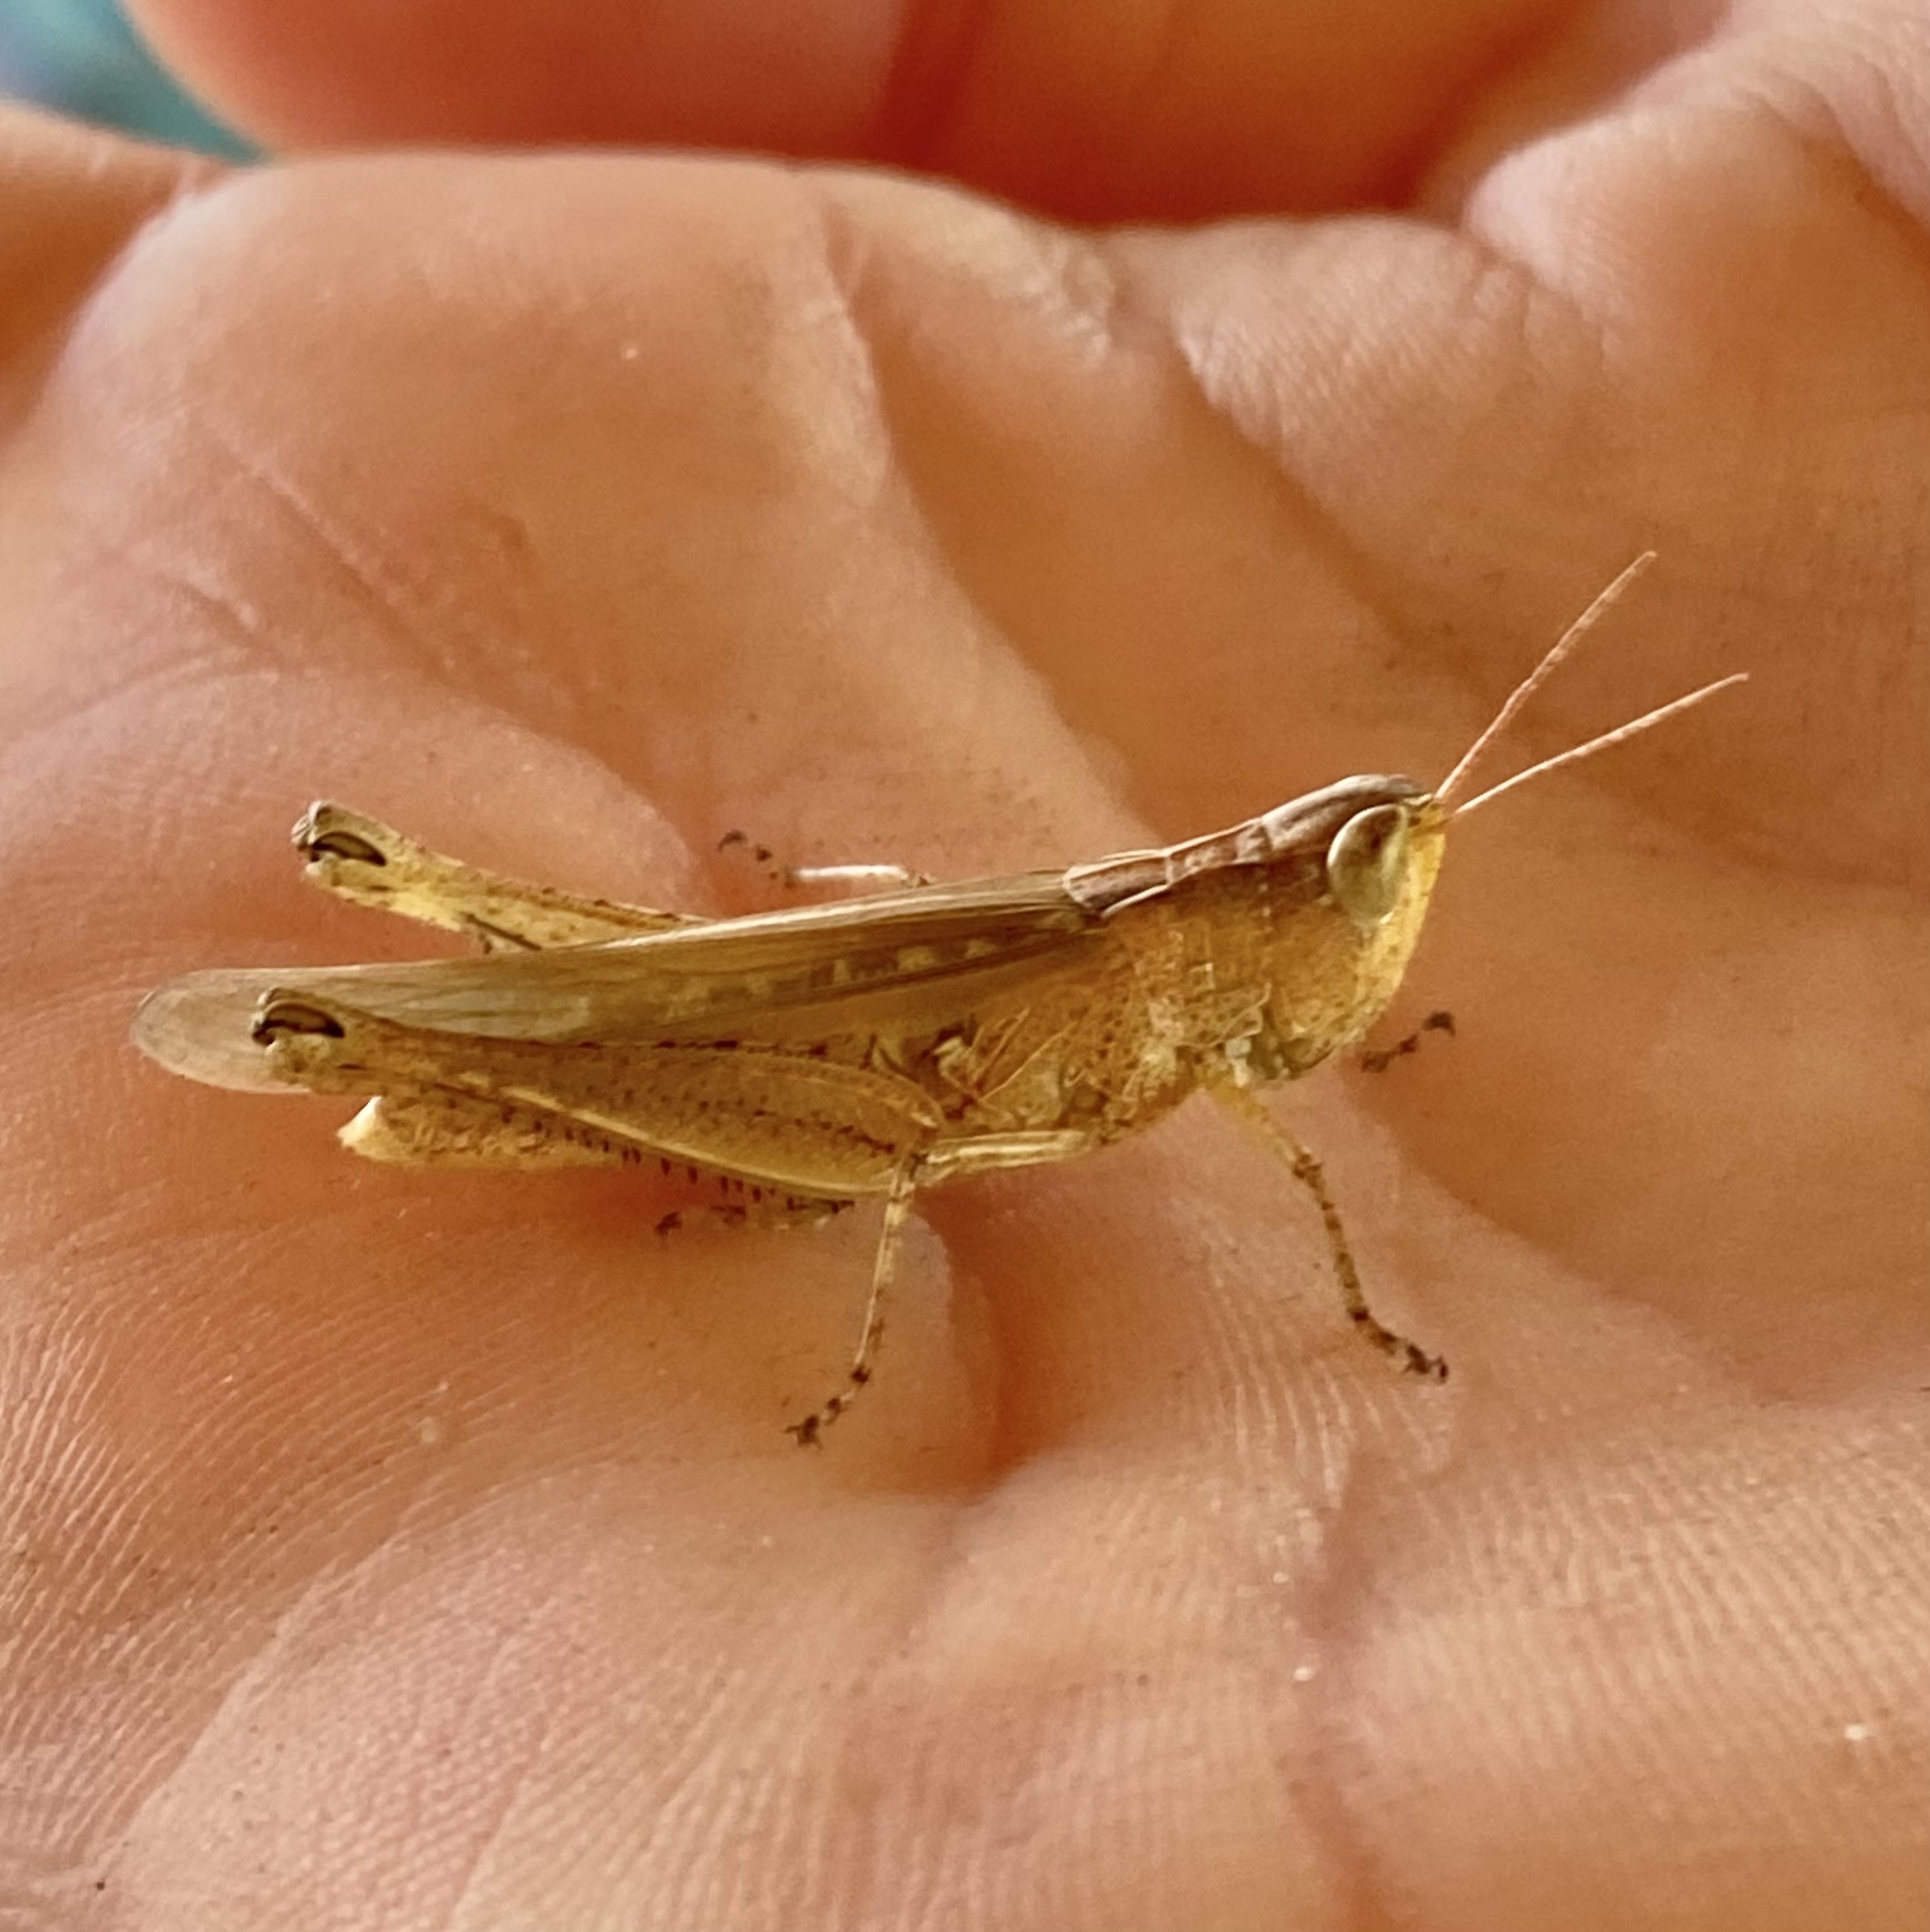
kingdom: Animalia
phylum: Arthropoda
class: Insecta
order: Orthoptera
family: Acrididae
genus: Orphulella
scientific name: Orphulella pelidna
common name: Spotted-wing grasshopper
